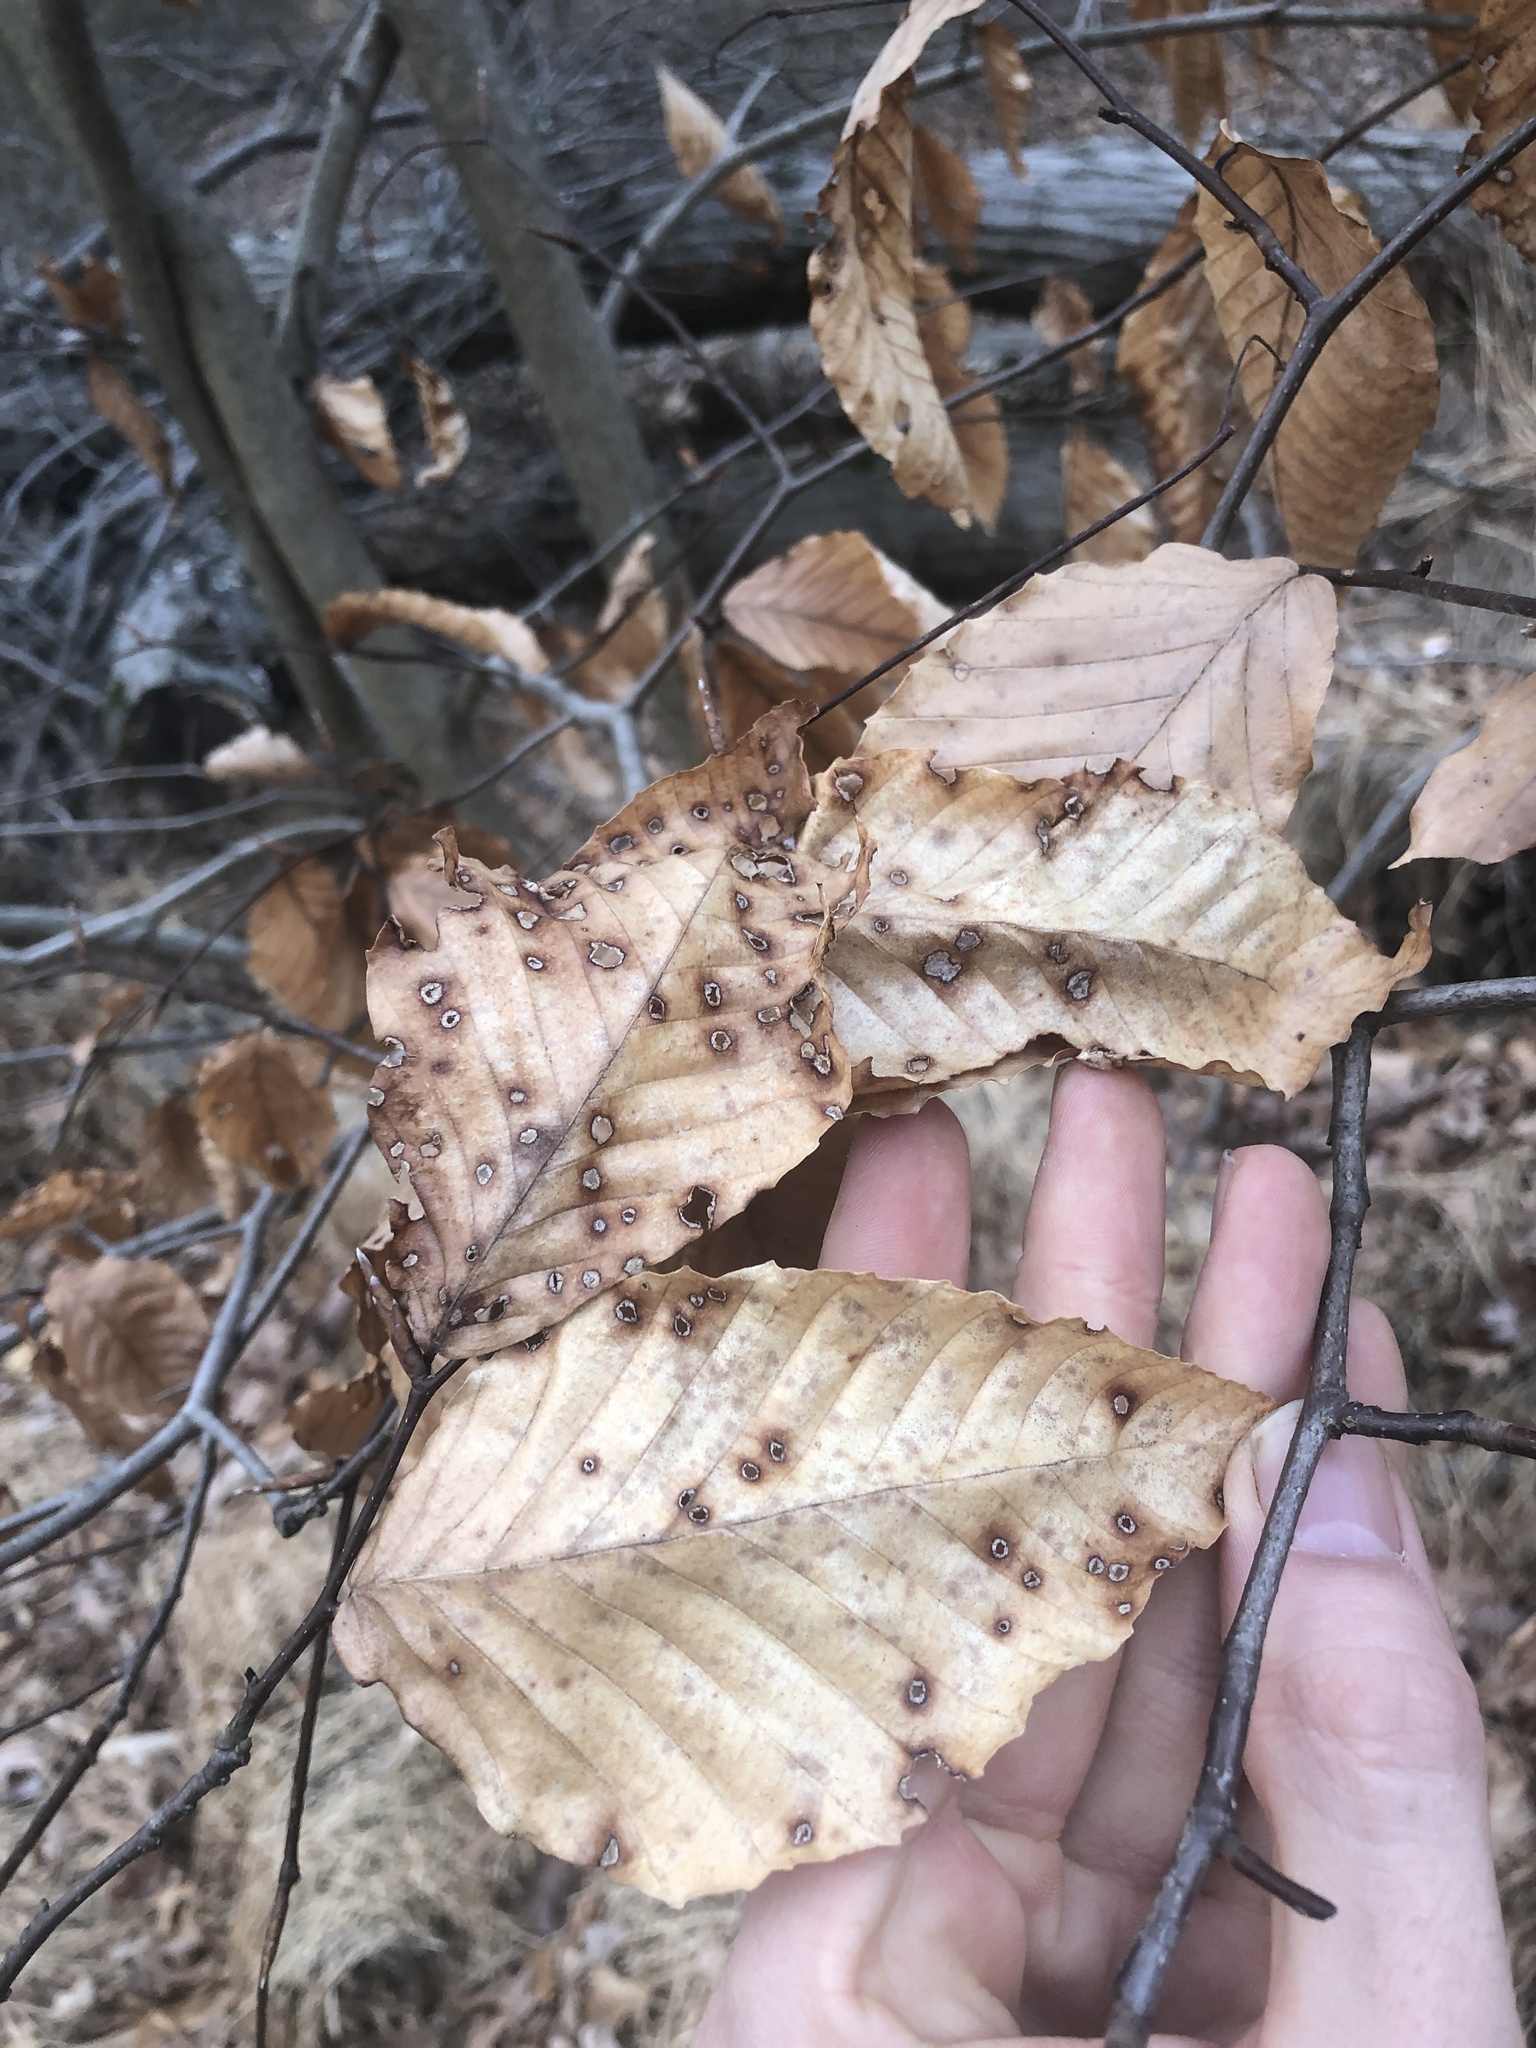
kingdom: Plantae
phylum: Tracheophyta
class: Magnoliopsida
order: Fagales
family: Fagaceae
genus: Fagus
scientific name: Fagus grandifolia
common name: American beech
